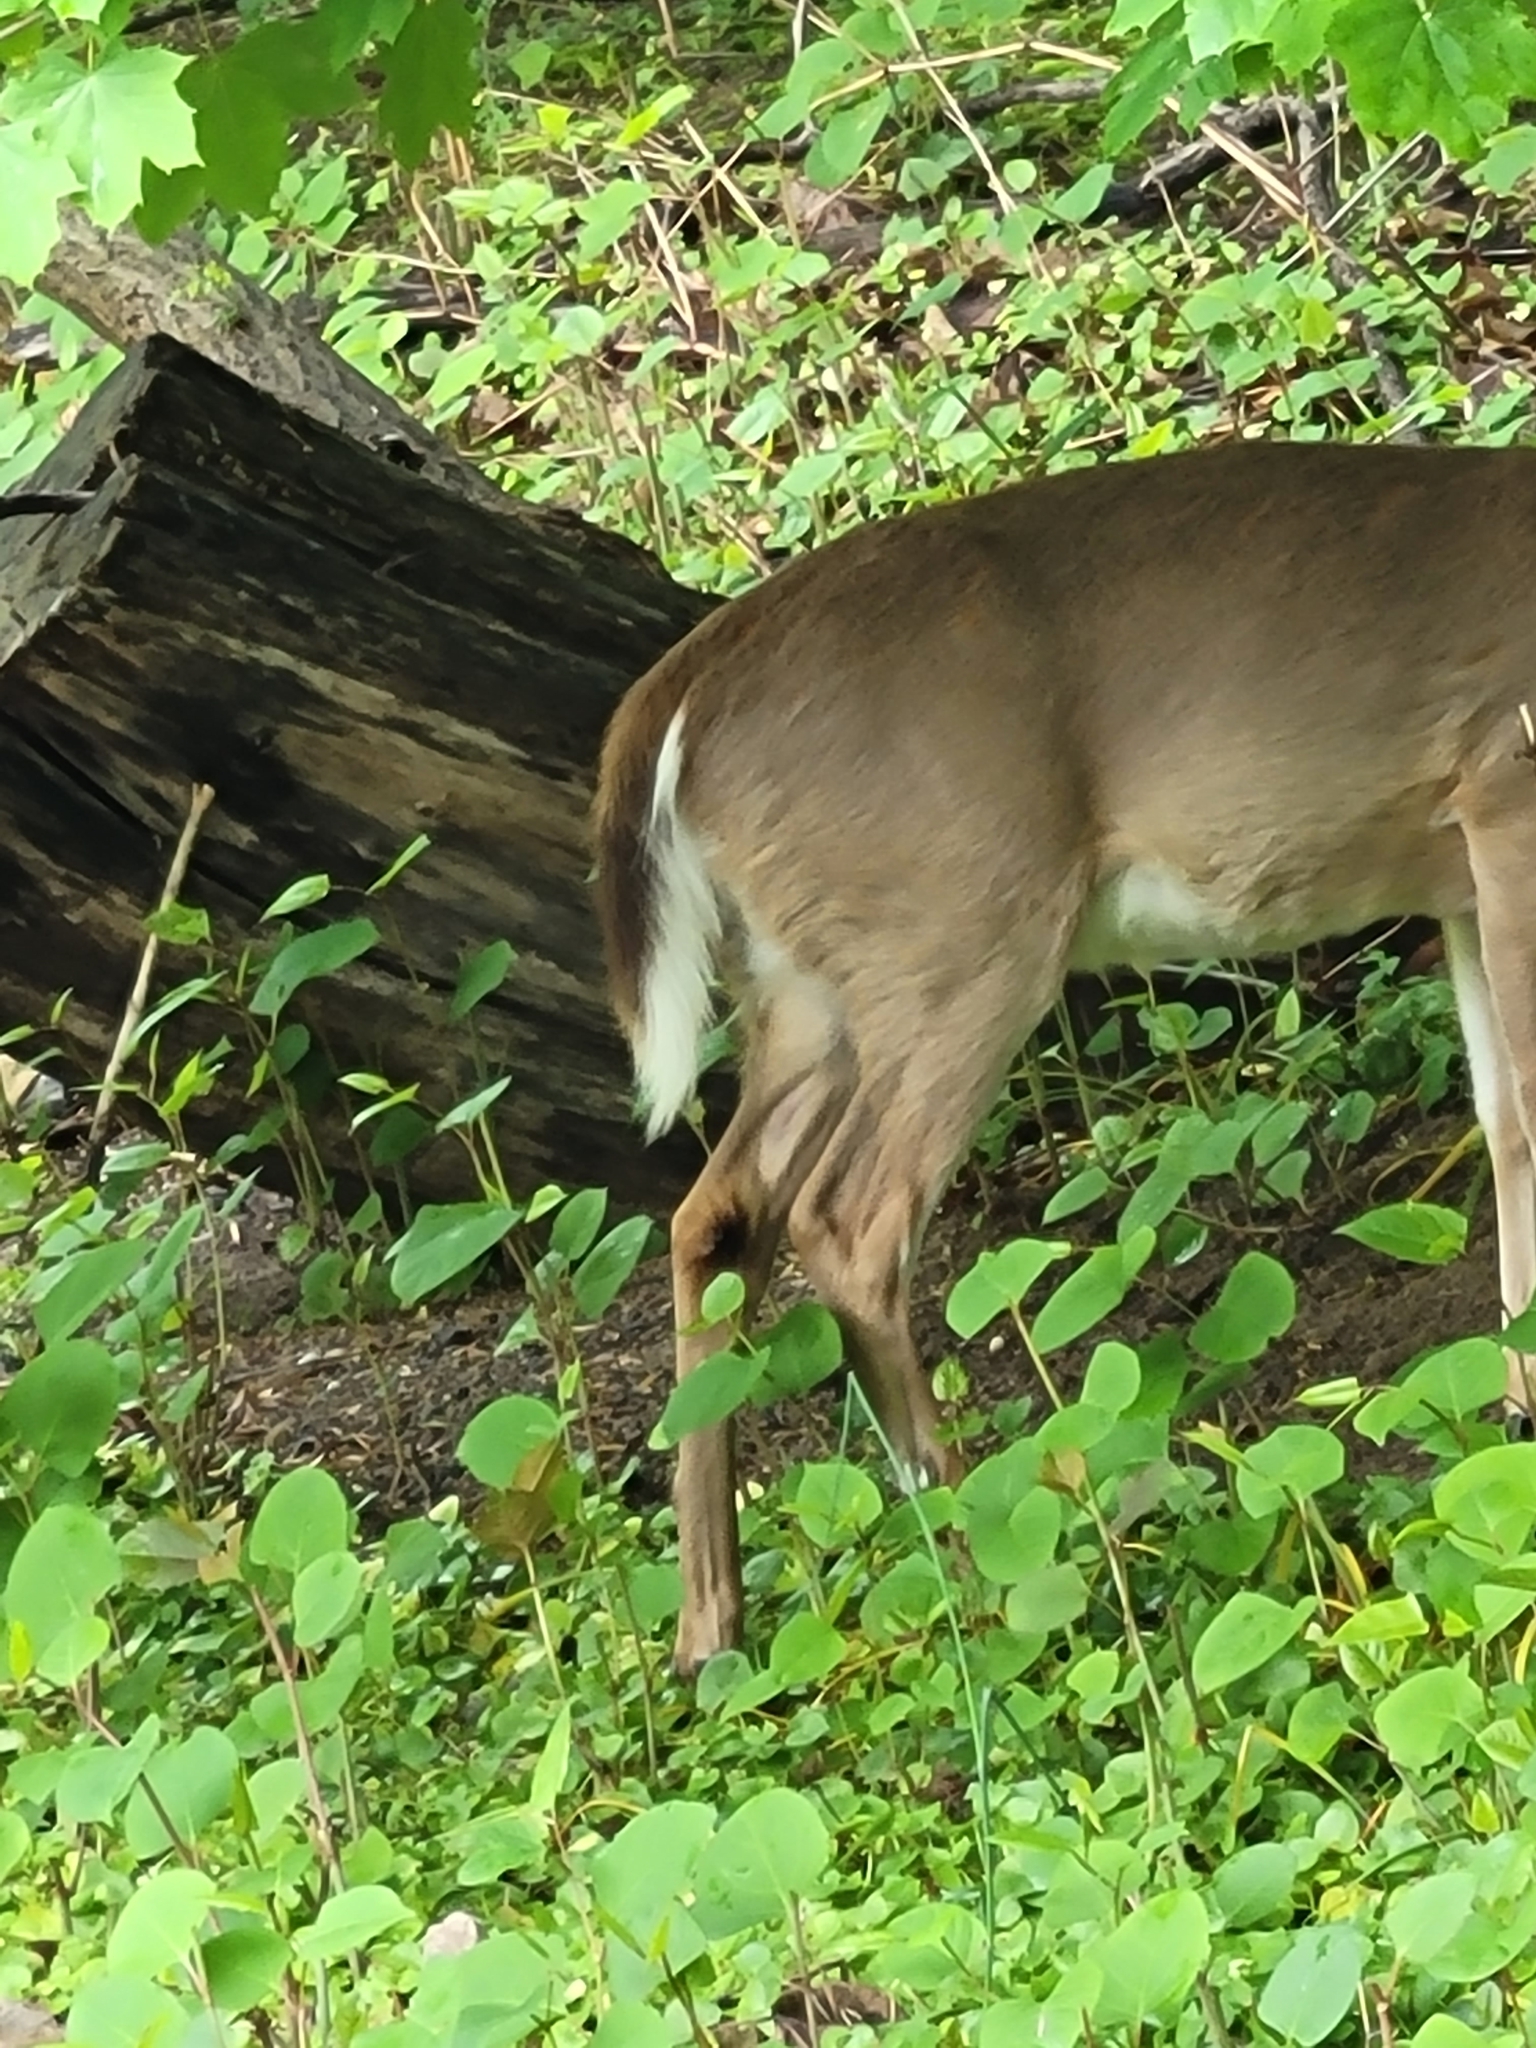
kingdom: Animalia
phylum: Chordata
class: Mammalia
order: Artiodactyla
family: Cervidae
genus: Odocoileus
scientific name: Odocoileus virginianus
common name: White-tailed deer
